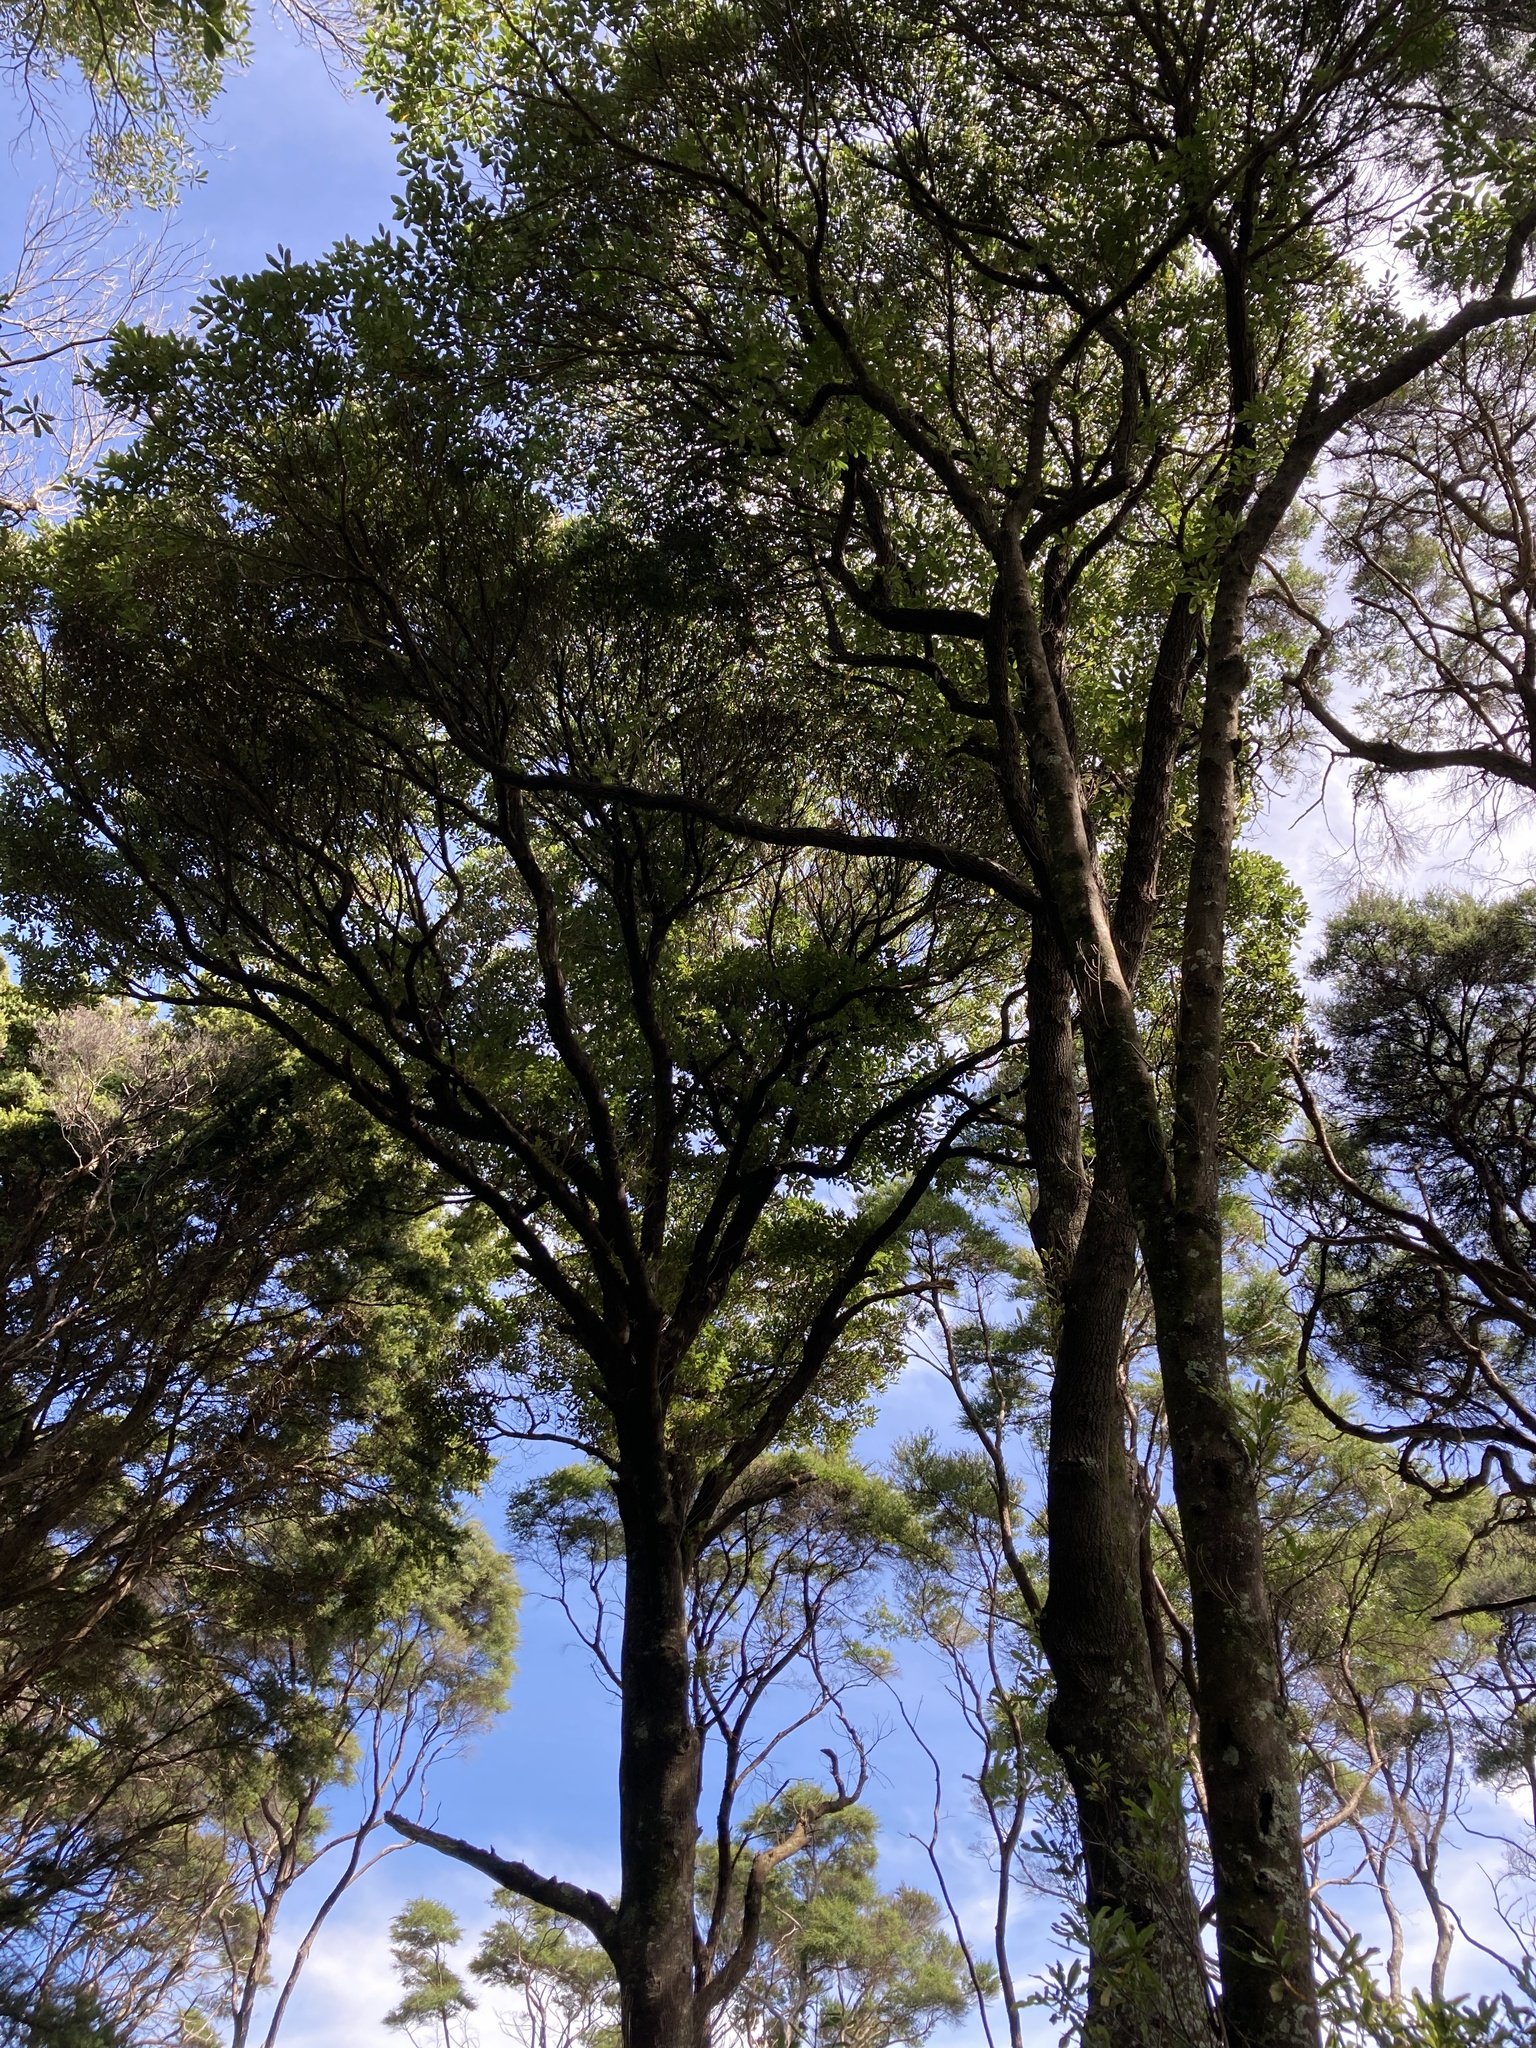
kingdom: Plantae
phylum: Tracheophyta
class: Magnoliopsida
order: Oxalidales
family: Elaeocarpaceae
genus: Elaeocarpus
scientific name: Elaeocarpus dentatus
